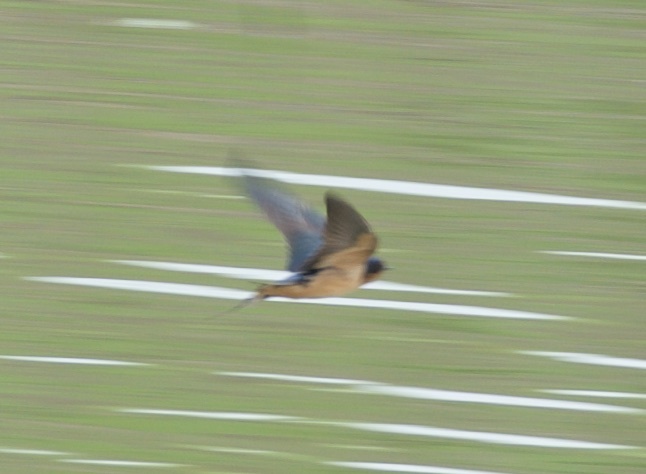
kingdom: Animalia
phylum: Chordata
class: Aves
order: Passeriformes
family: Hirundinidae
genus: Hirundo
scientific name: Hirundo rustica
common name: Barn swallow
